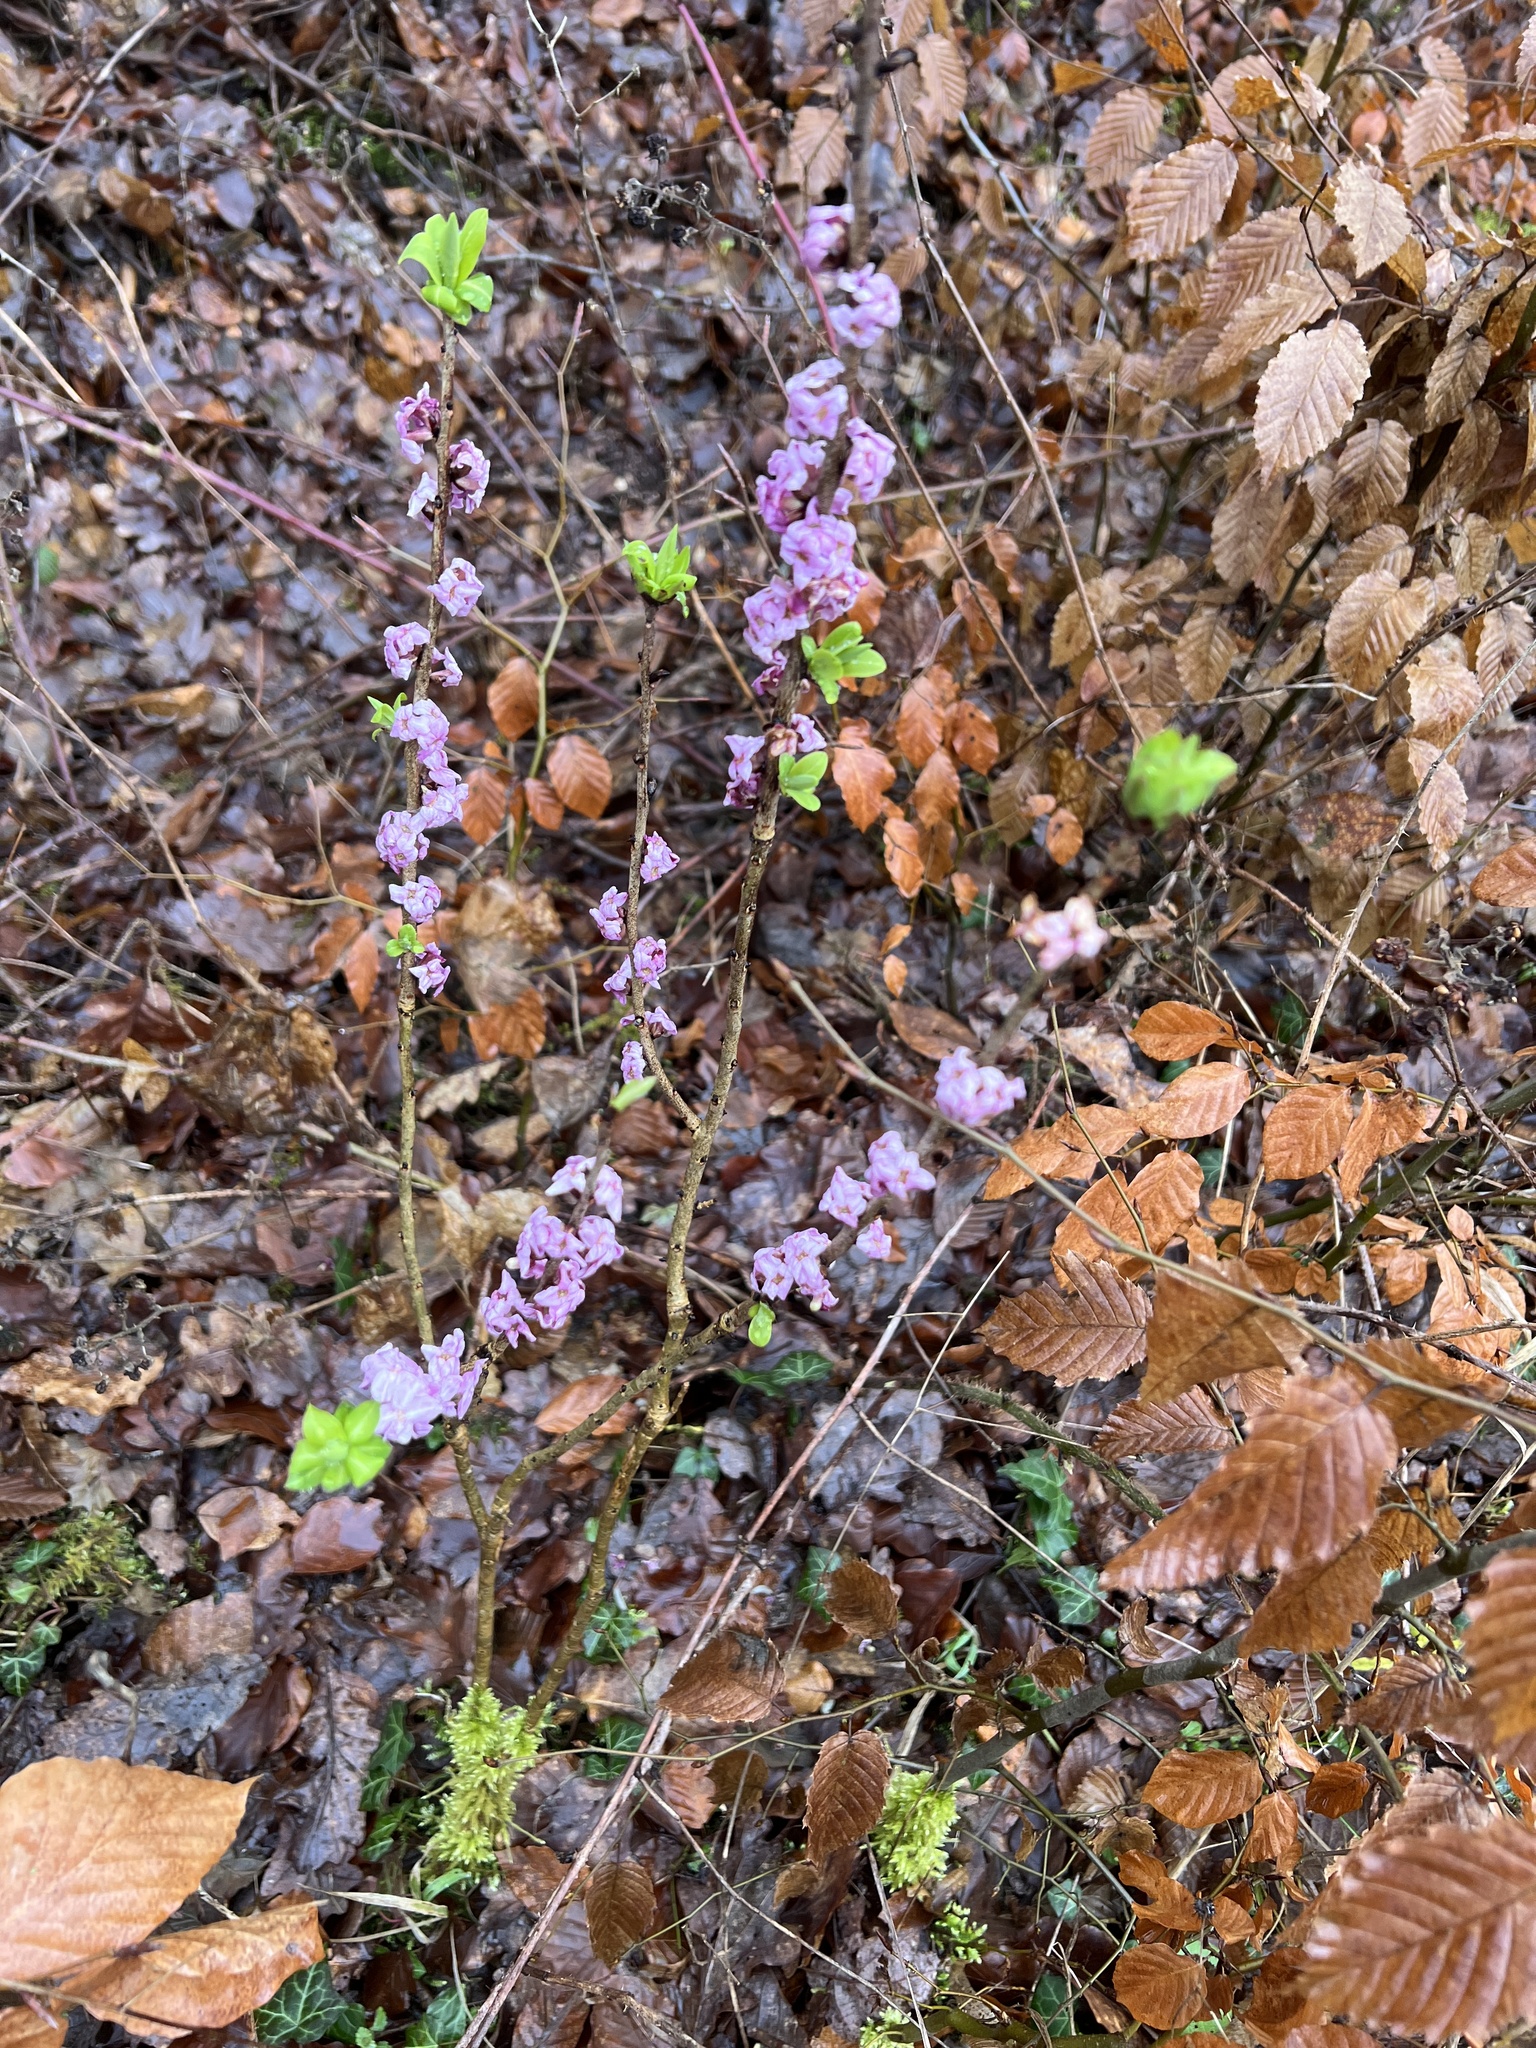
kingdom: Plantae
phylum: Tracheophyta
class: Magnoliopsida
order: Malvales
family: Thymelaeaceae
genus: Daphne
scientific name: Daphne mezereum
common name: Mezereon
